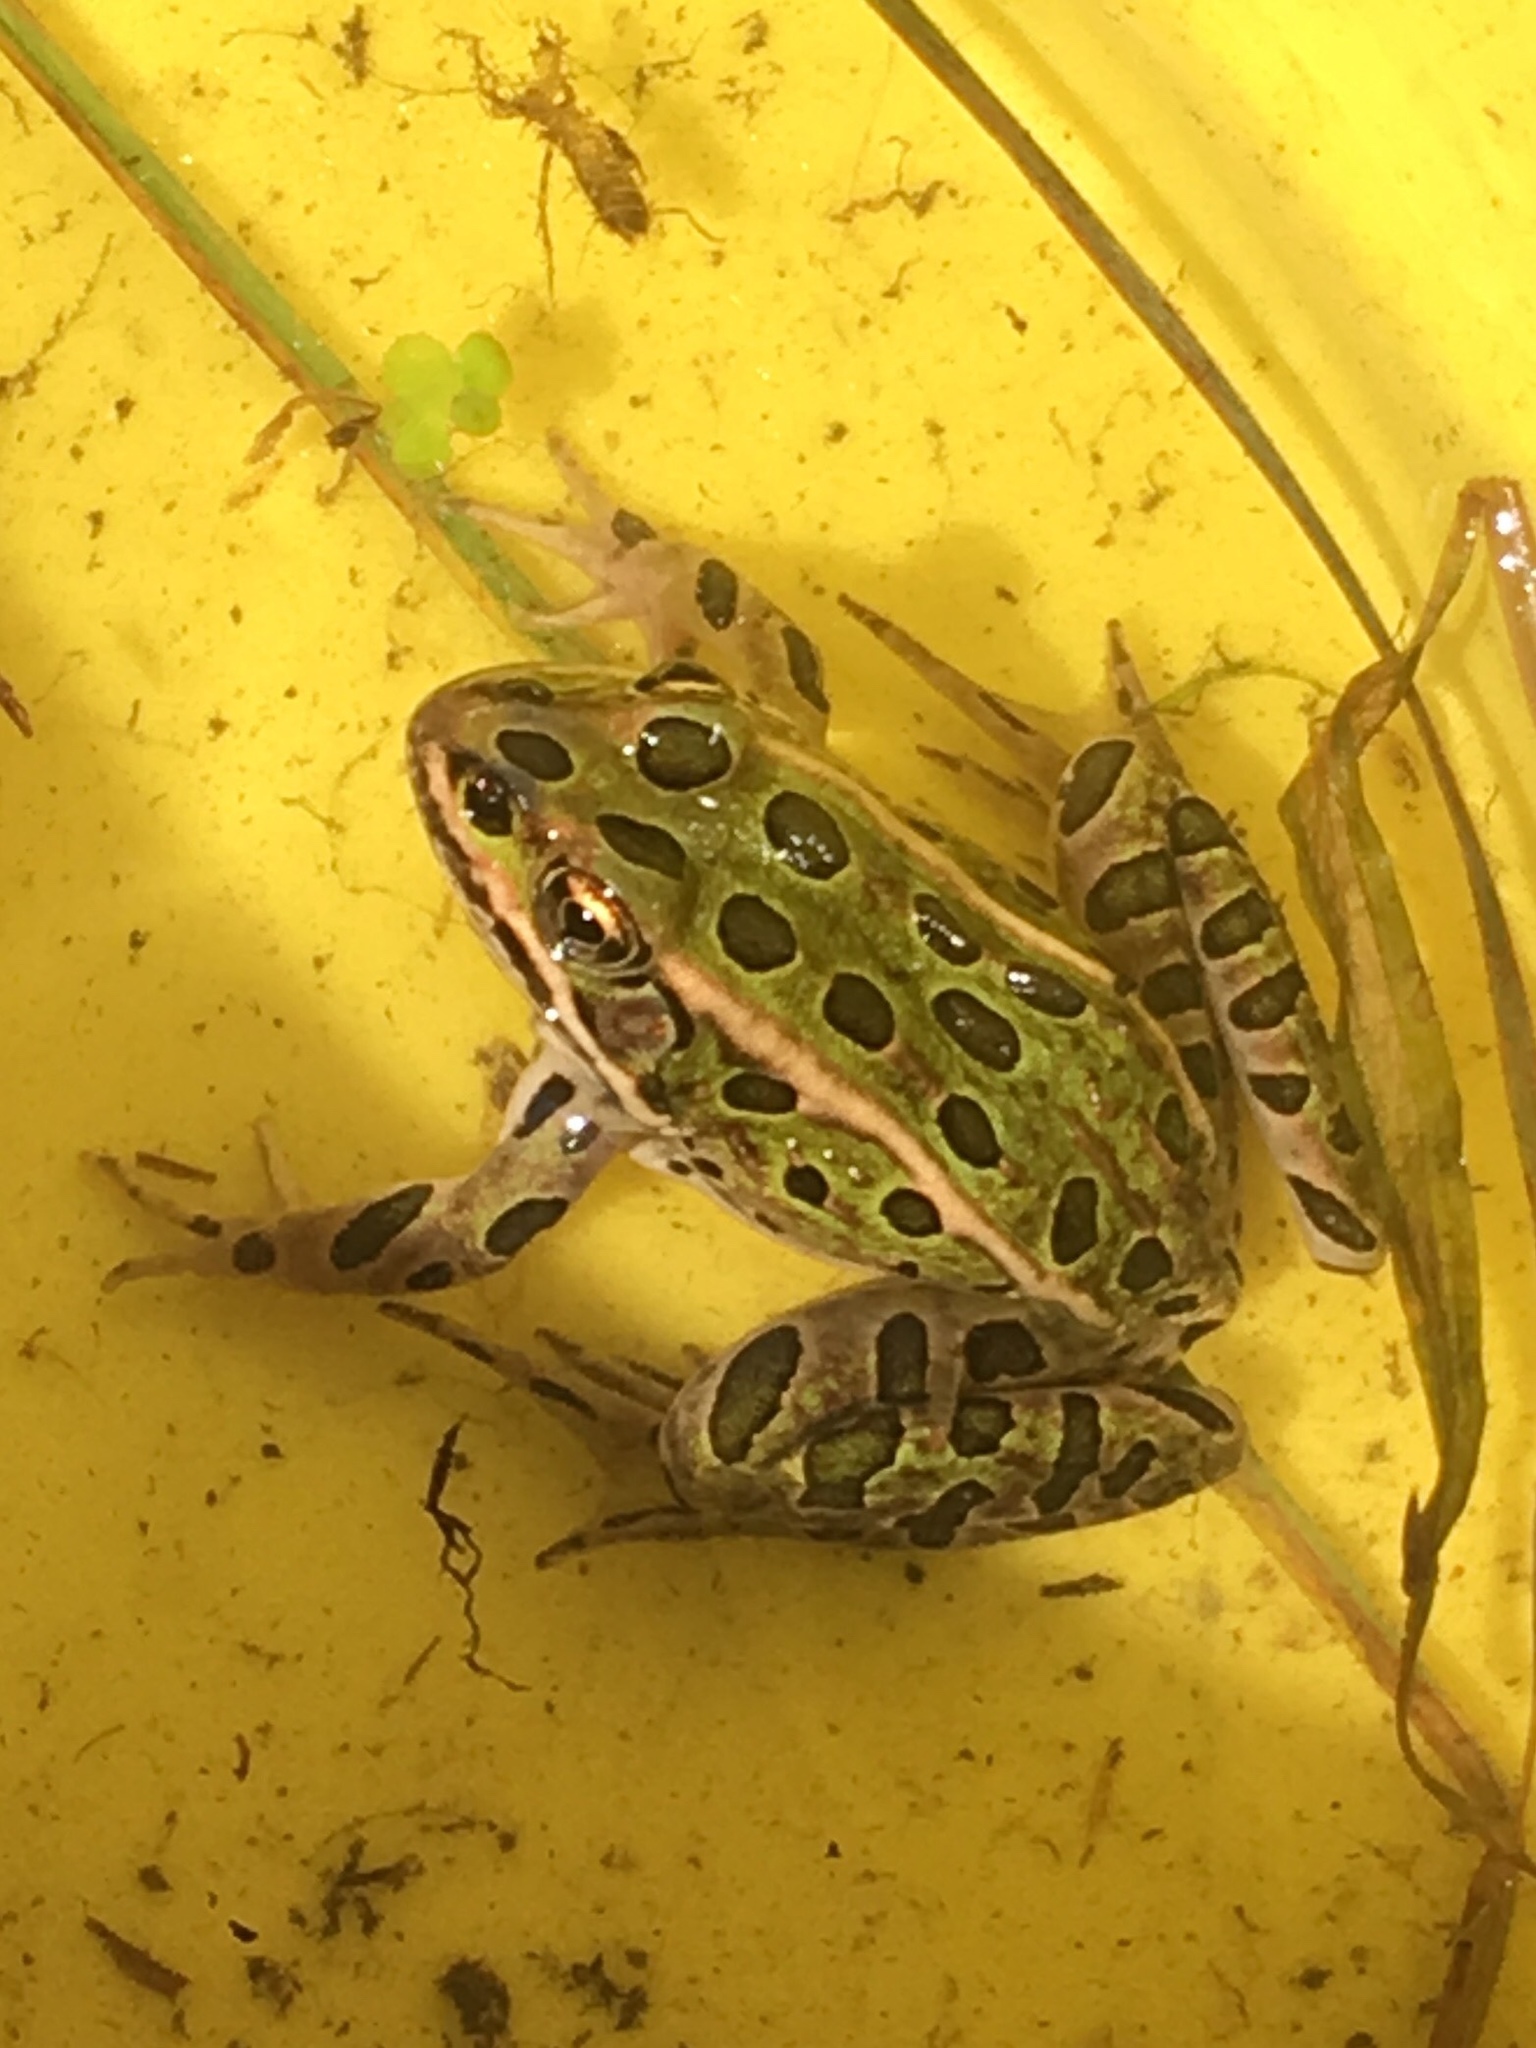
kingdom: Animalia
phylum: Chordata
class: Amphibia
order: Anura
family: Ranidae
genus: Lithobates
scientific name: Lithobates pipiens
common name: Northern leopard frog
